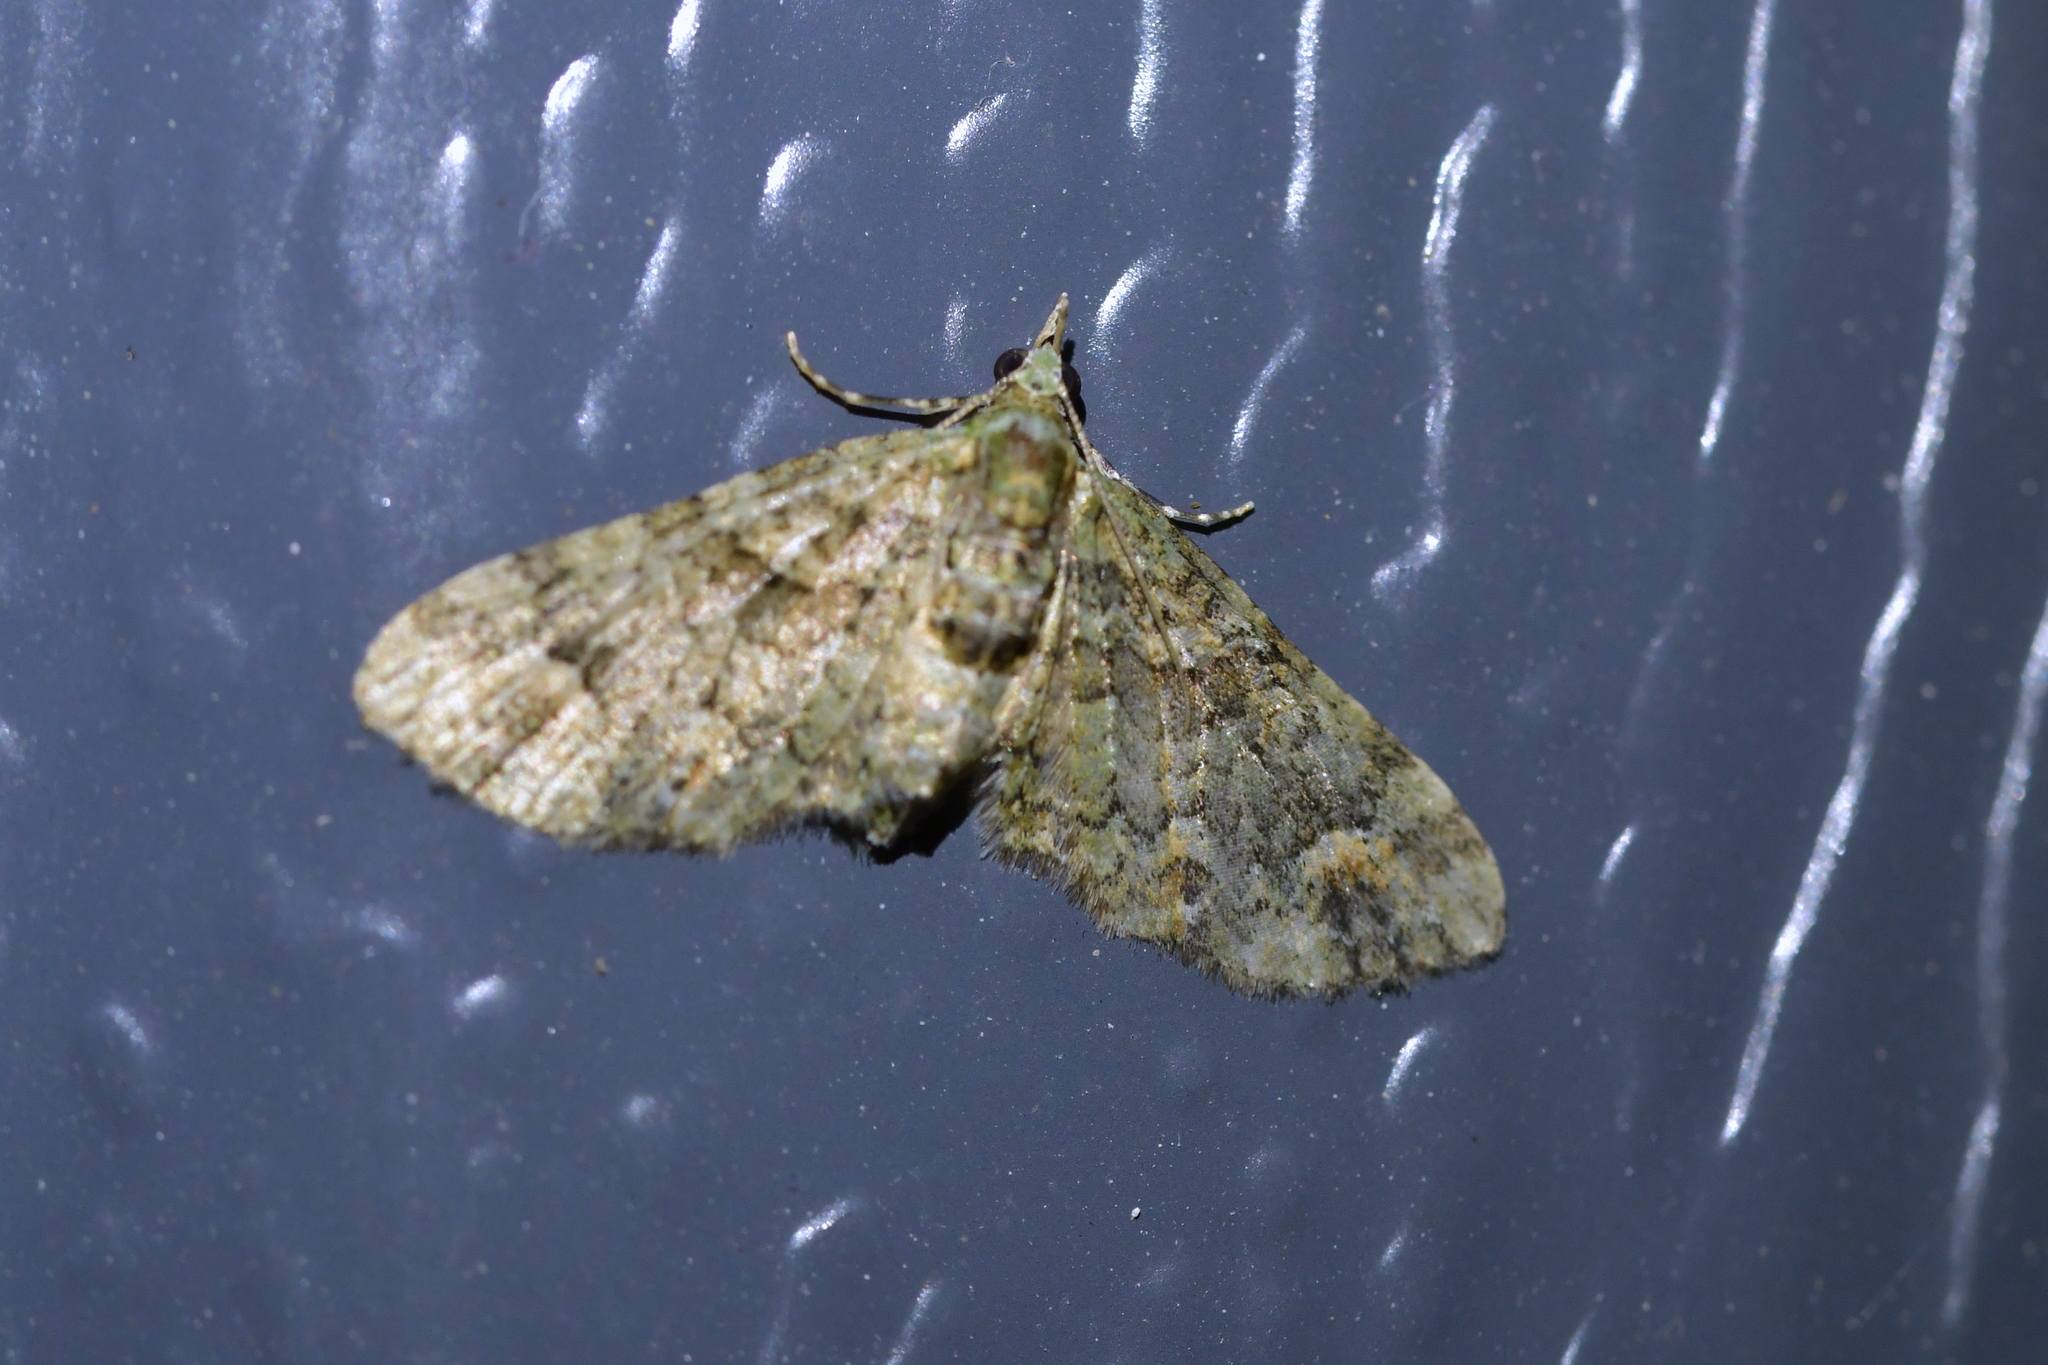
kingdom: Animalia
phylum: Arthropoda
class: Insecta
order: Lepidoptera
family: Geometridae
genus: Idaea
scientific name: Idaea mutanda
